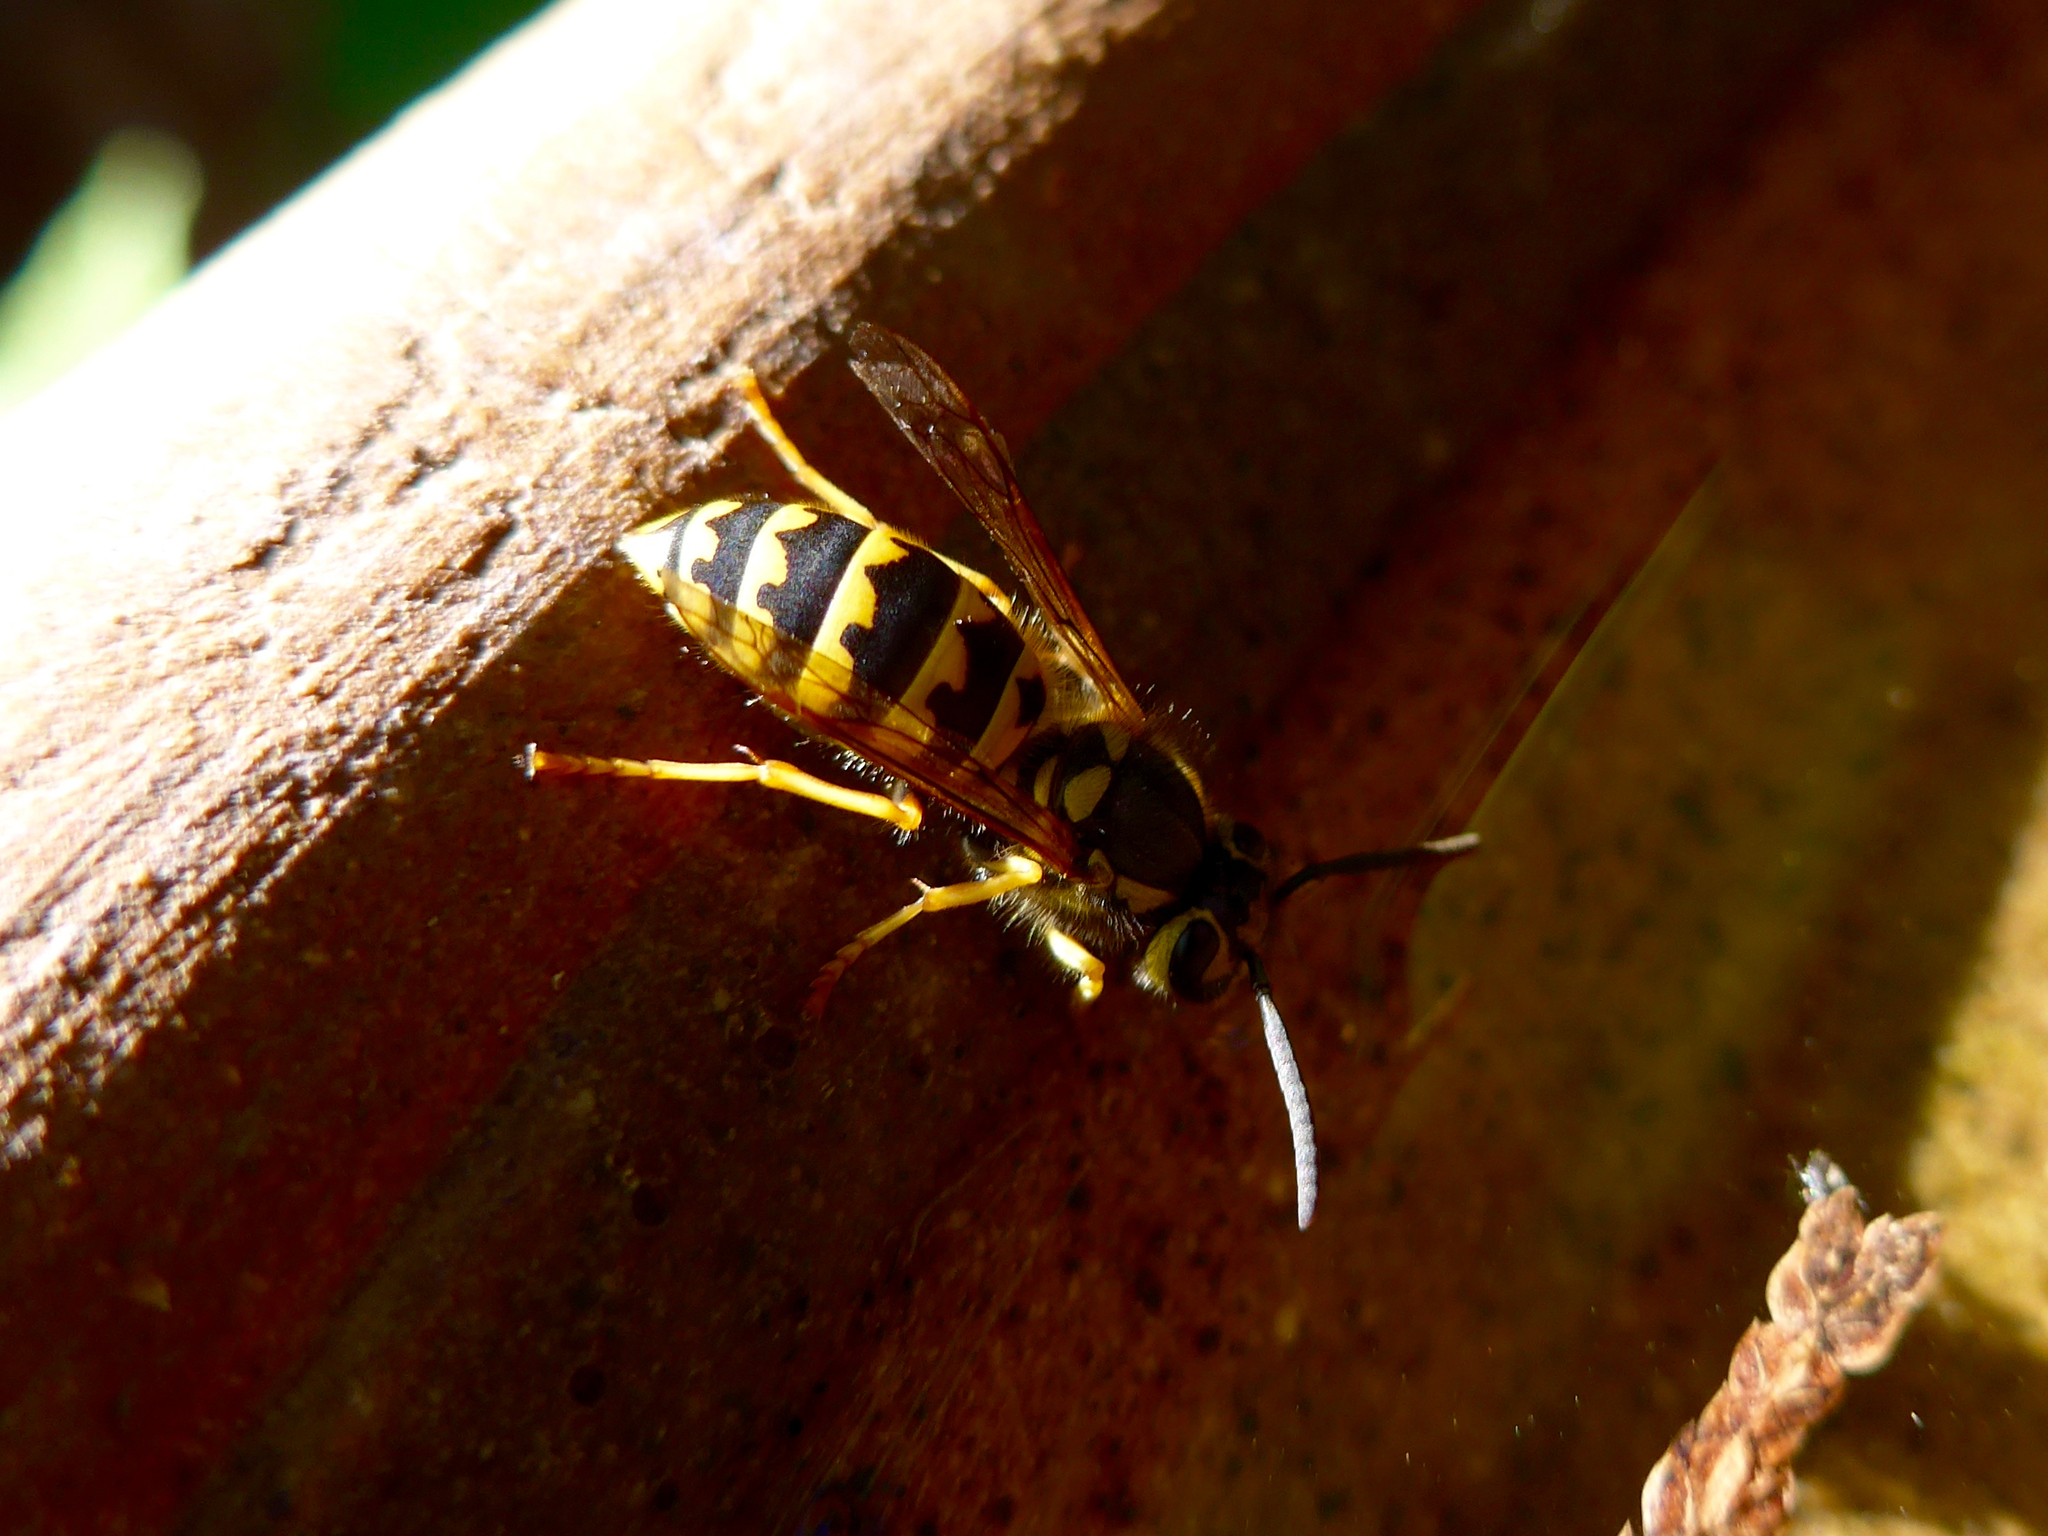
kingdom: Animalia
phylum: Arthropoda
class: Insecta
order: Hymenoptera
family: Vespidae
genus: Vespula
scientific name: Vespula pensylvanica
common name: Western yellowjacket
